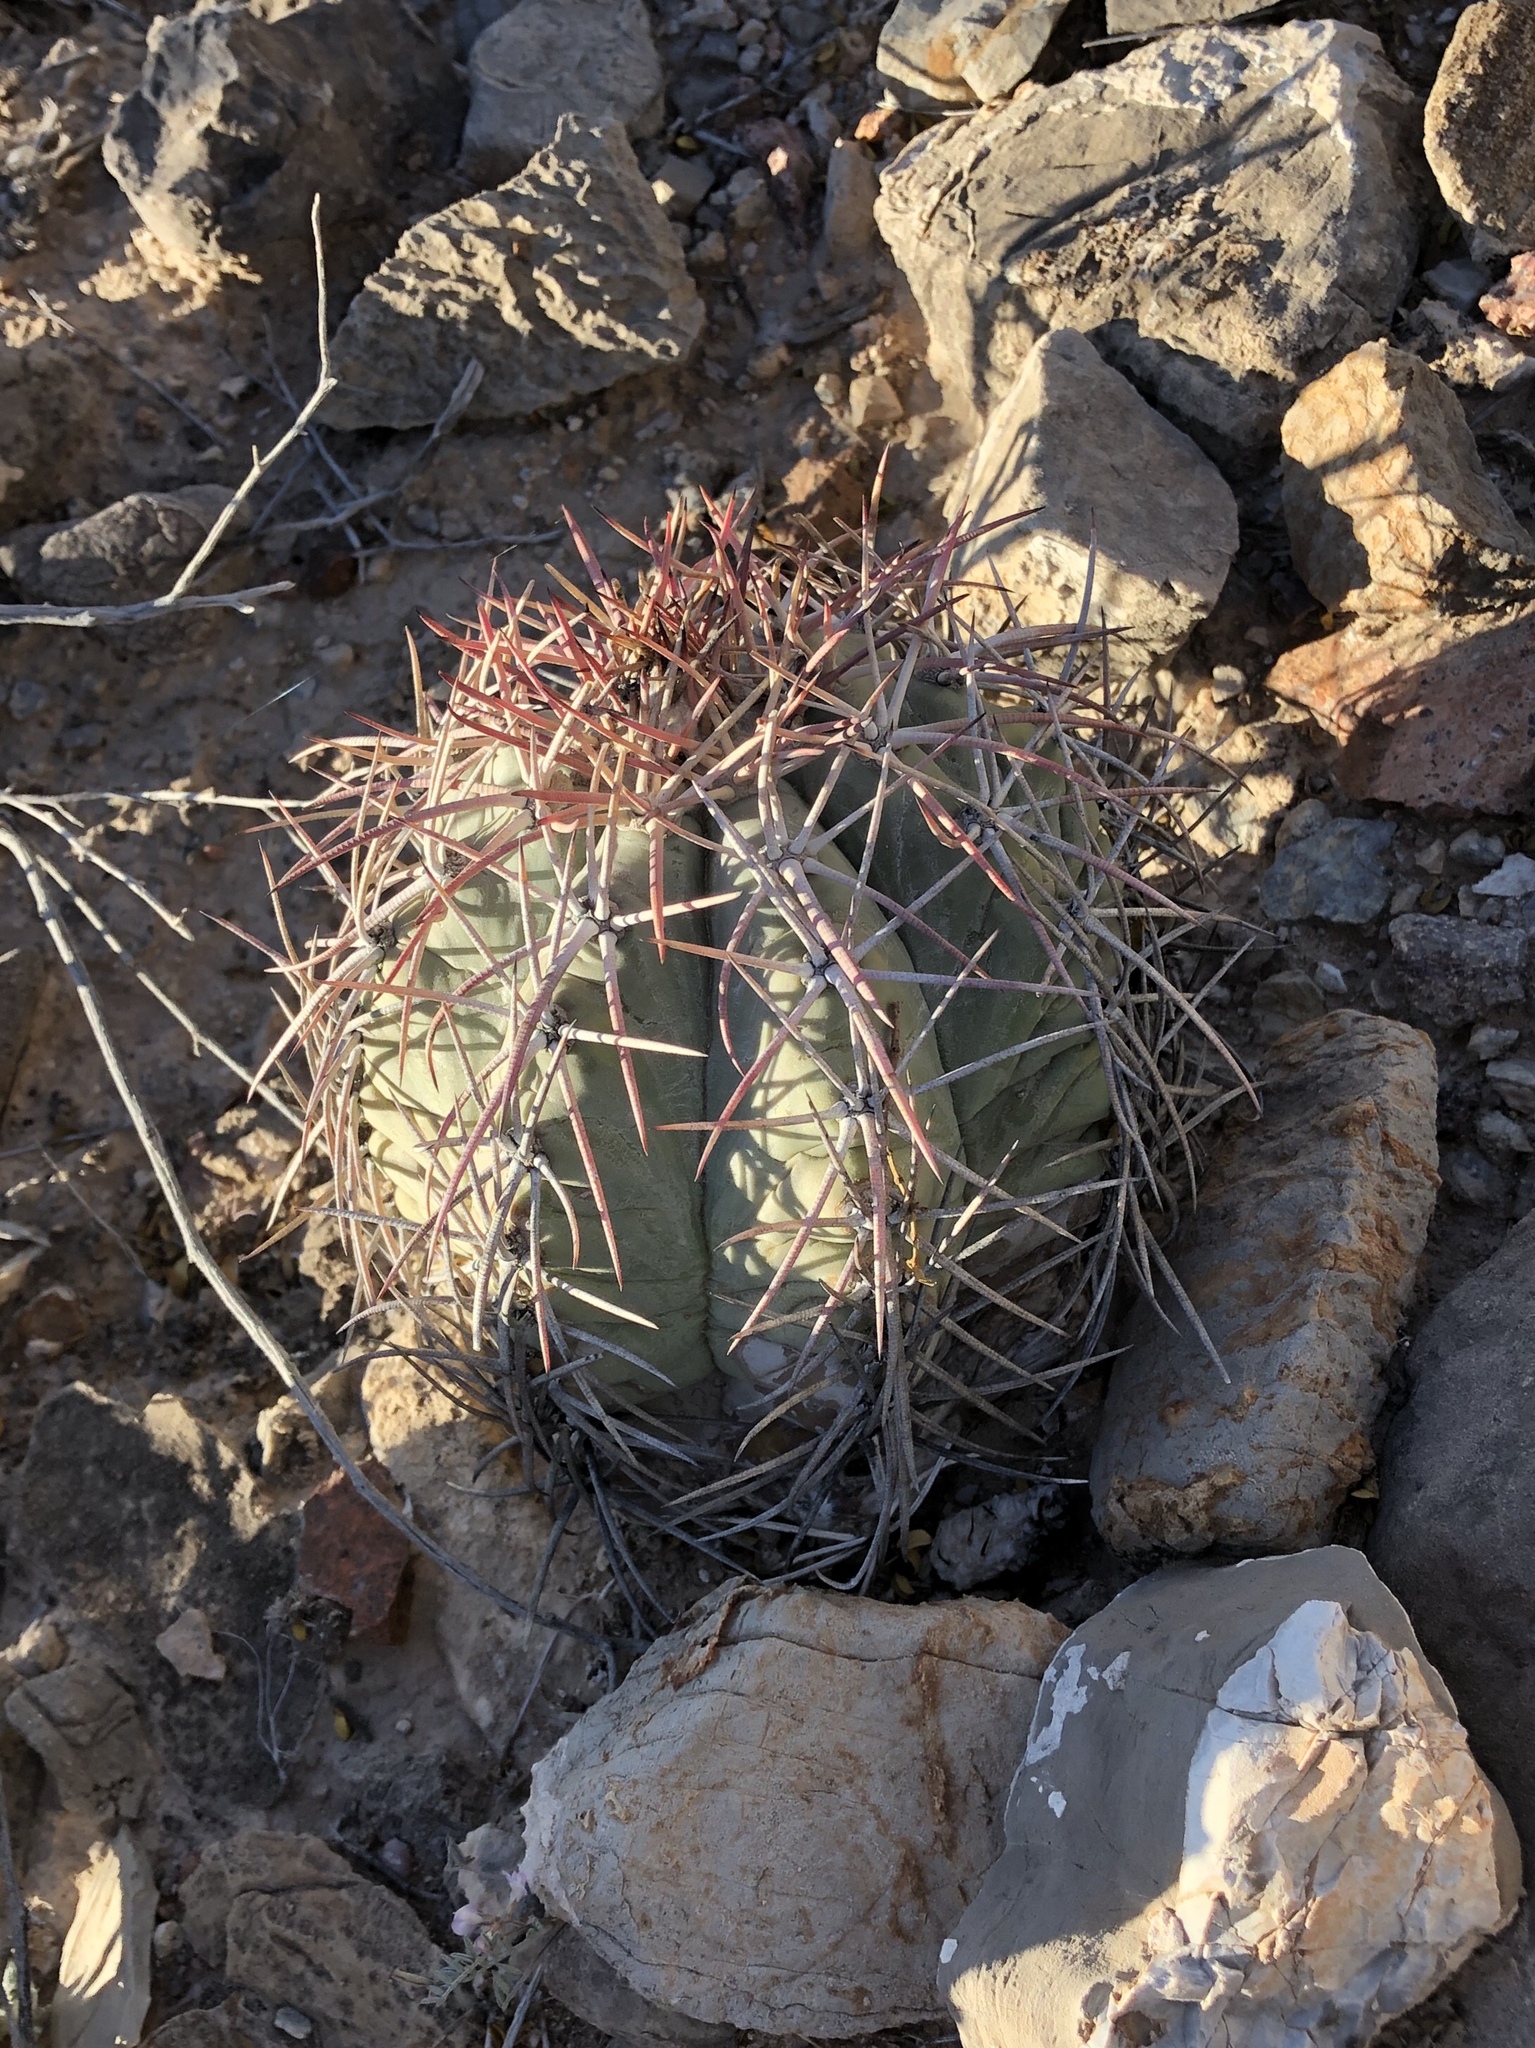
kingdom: Plantae
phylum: Tracheophyta
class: Magnoliopsida
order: Caryophyllales
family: Cactaceae
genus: Echinocactus
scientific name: Echinocactus horizonthalonius
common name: Devilshead
